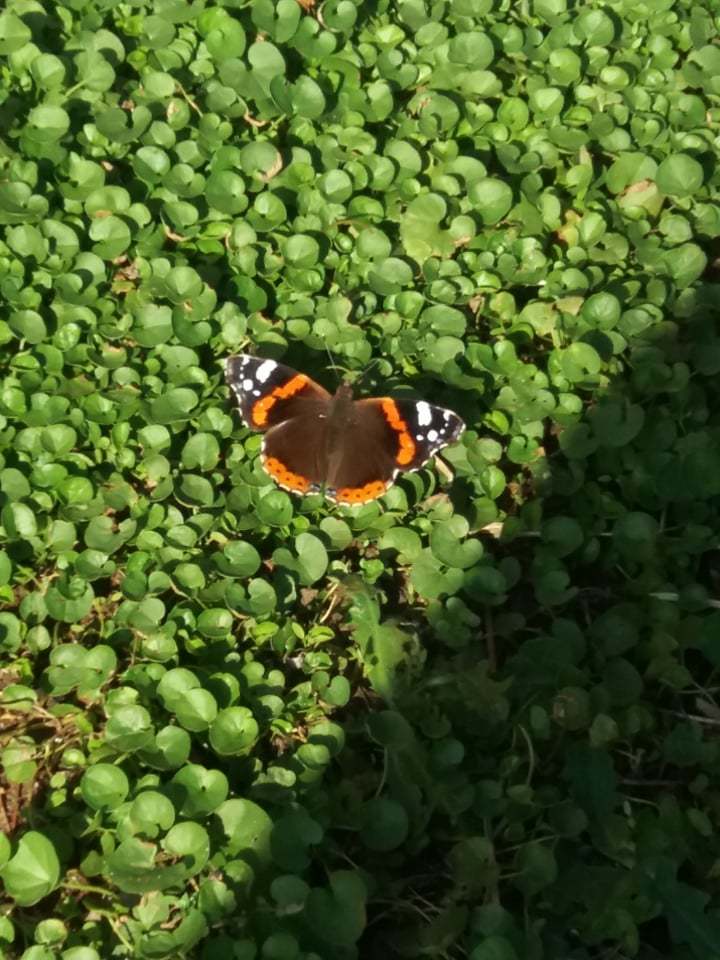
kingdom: Animalia
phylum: Arthropoda
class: Insecta
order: Lepidoptera
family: Nymphalidae
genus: Vanessa
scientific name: Vanessa atalanta
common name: Red admiral
